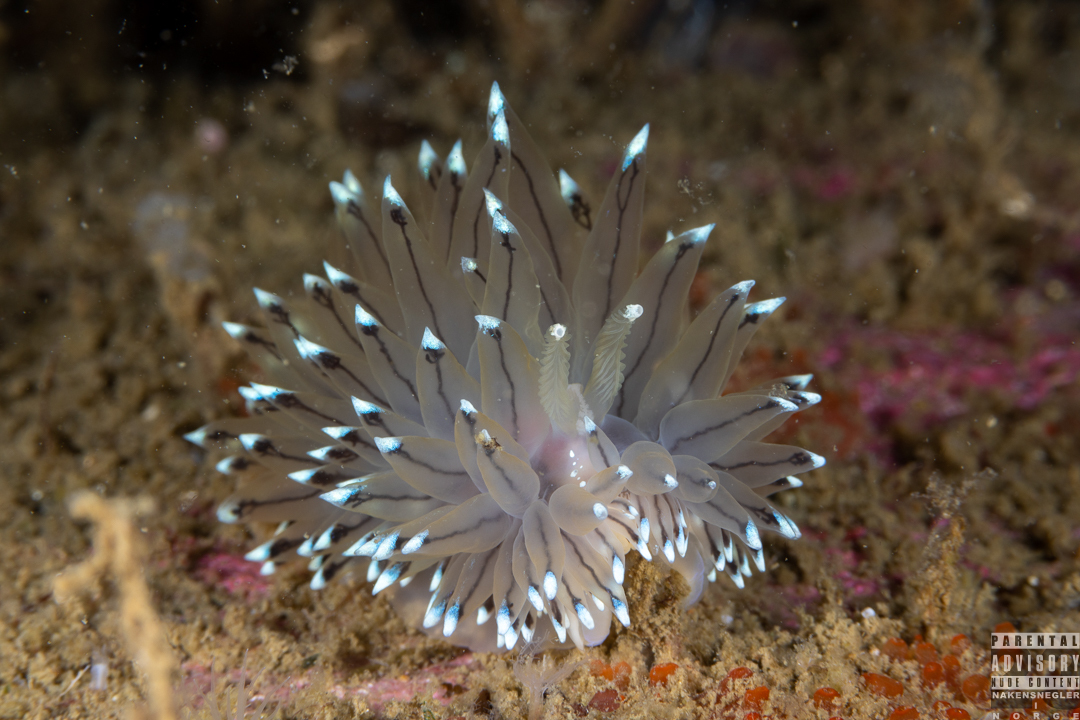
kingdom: Animalia
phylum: Mollusca
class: Gastropoda
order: Nudibranchia
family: Janolidae
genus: Antiopella
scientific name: Antiopella cristata
